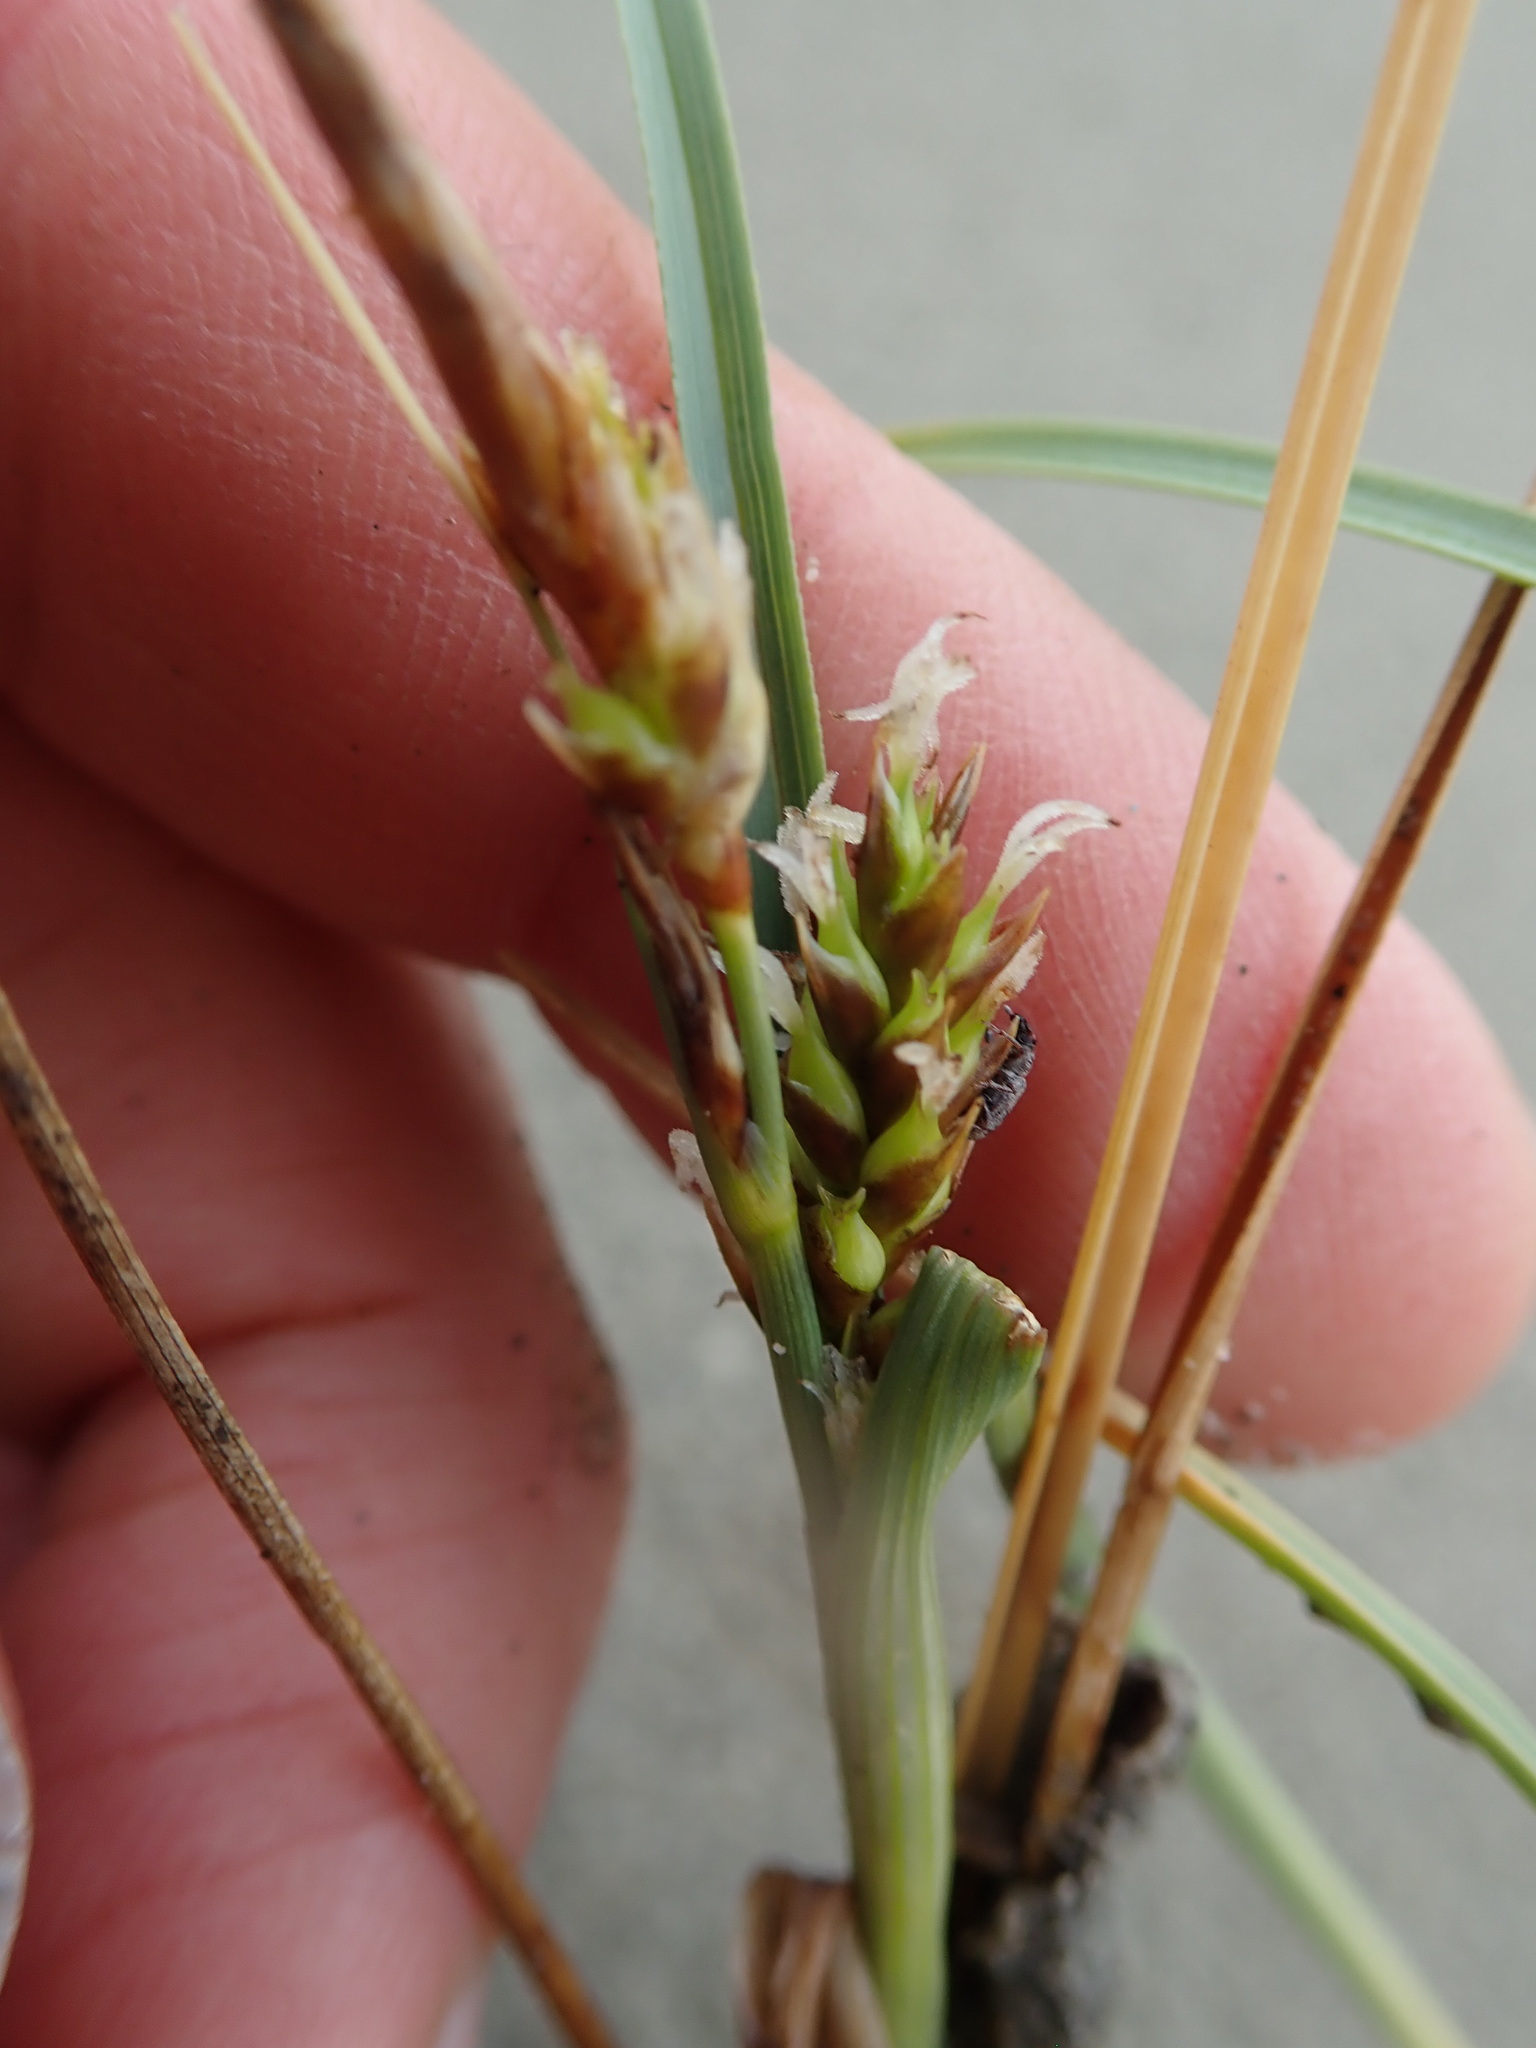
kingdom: Plantae
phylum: Tracheophyta
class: Liliopsida
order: Poales
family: Cyperaceae
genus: Carex
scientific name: Carex pumila
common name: Dwarf sedge
